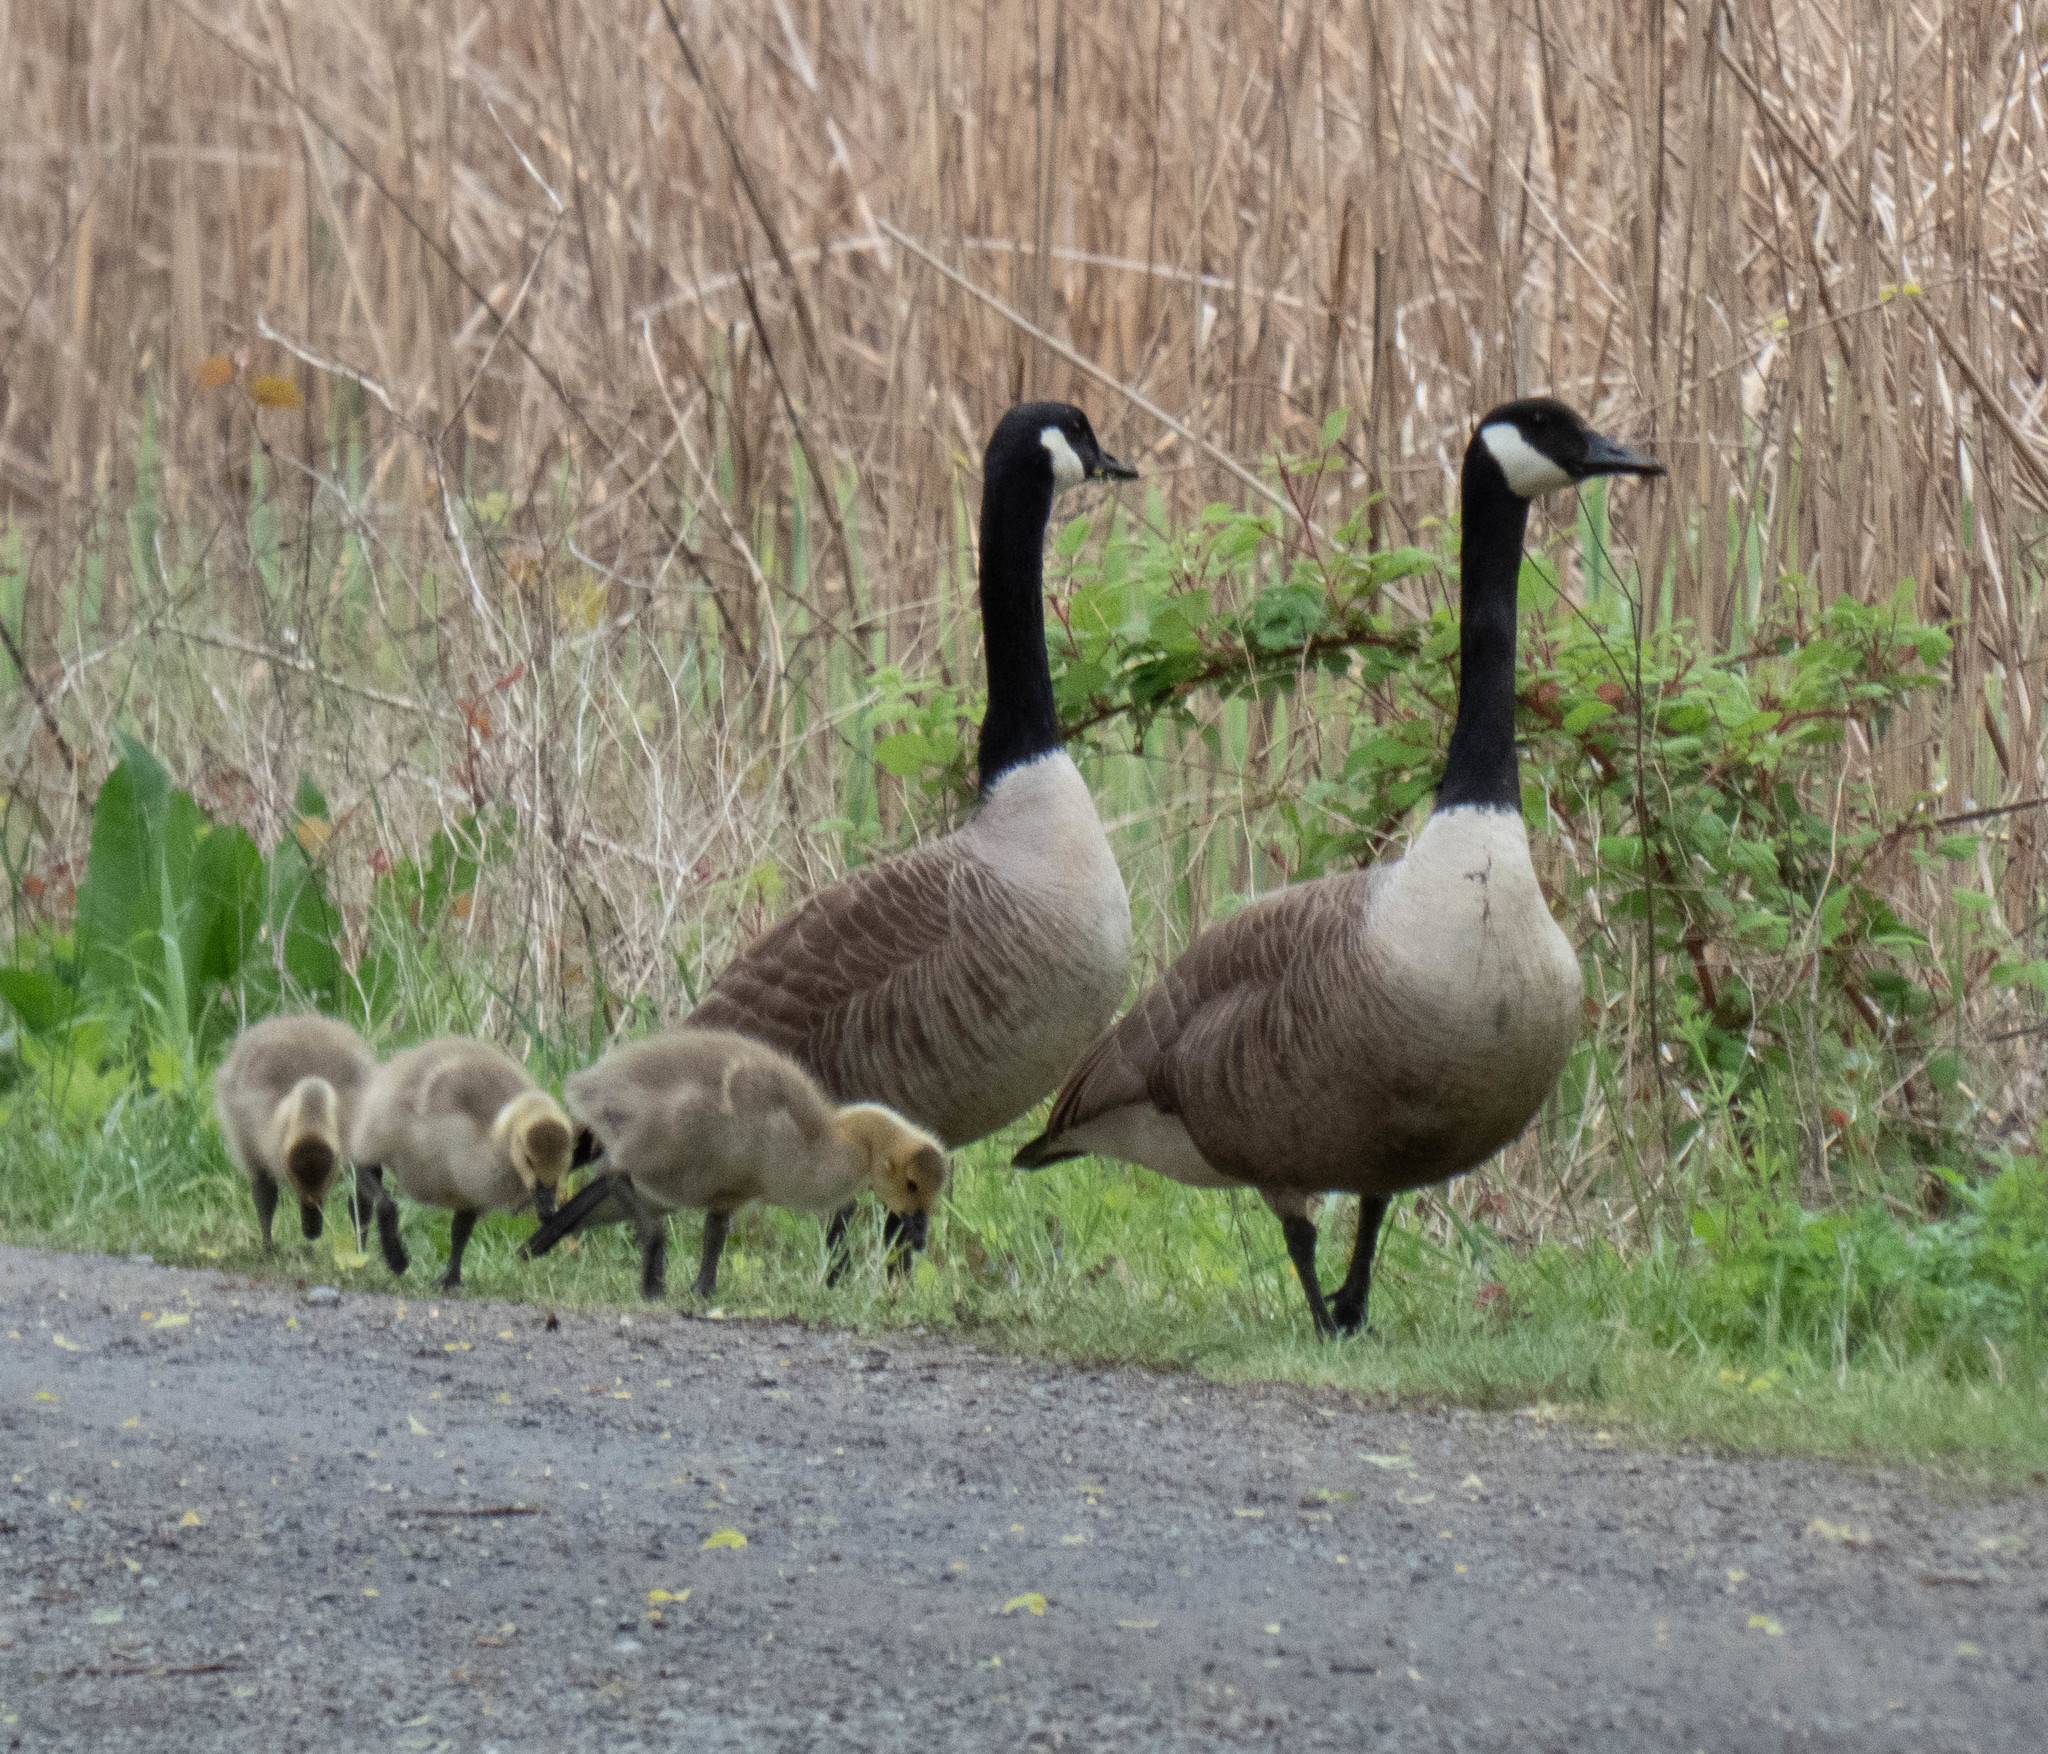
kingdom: Animalia
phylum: Chordata
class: Aves
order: Anseriformes
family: Anatidae
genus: Branta
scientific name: Branta canadensis
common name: Canada goose
